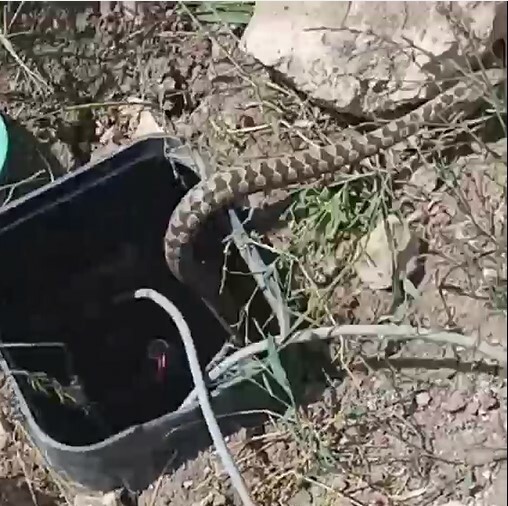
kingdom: Animalia
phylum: Chordata
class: Squamata
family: Colubridae
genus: Hemorrhois
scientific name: Hemorrhois ravergieri
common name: Spotted whip snake
